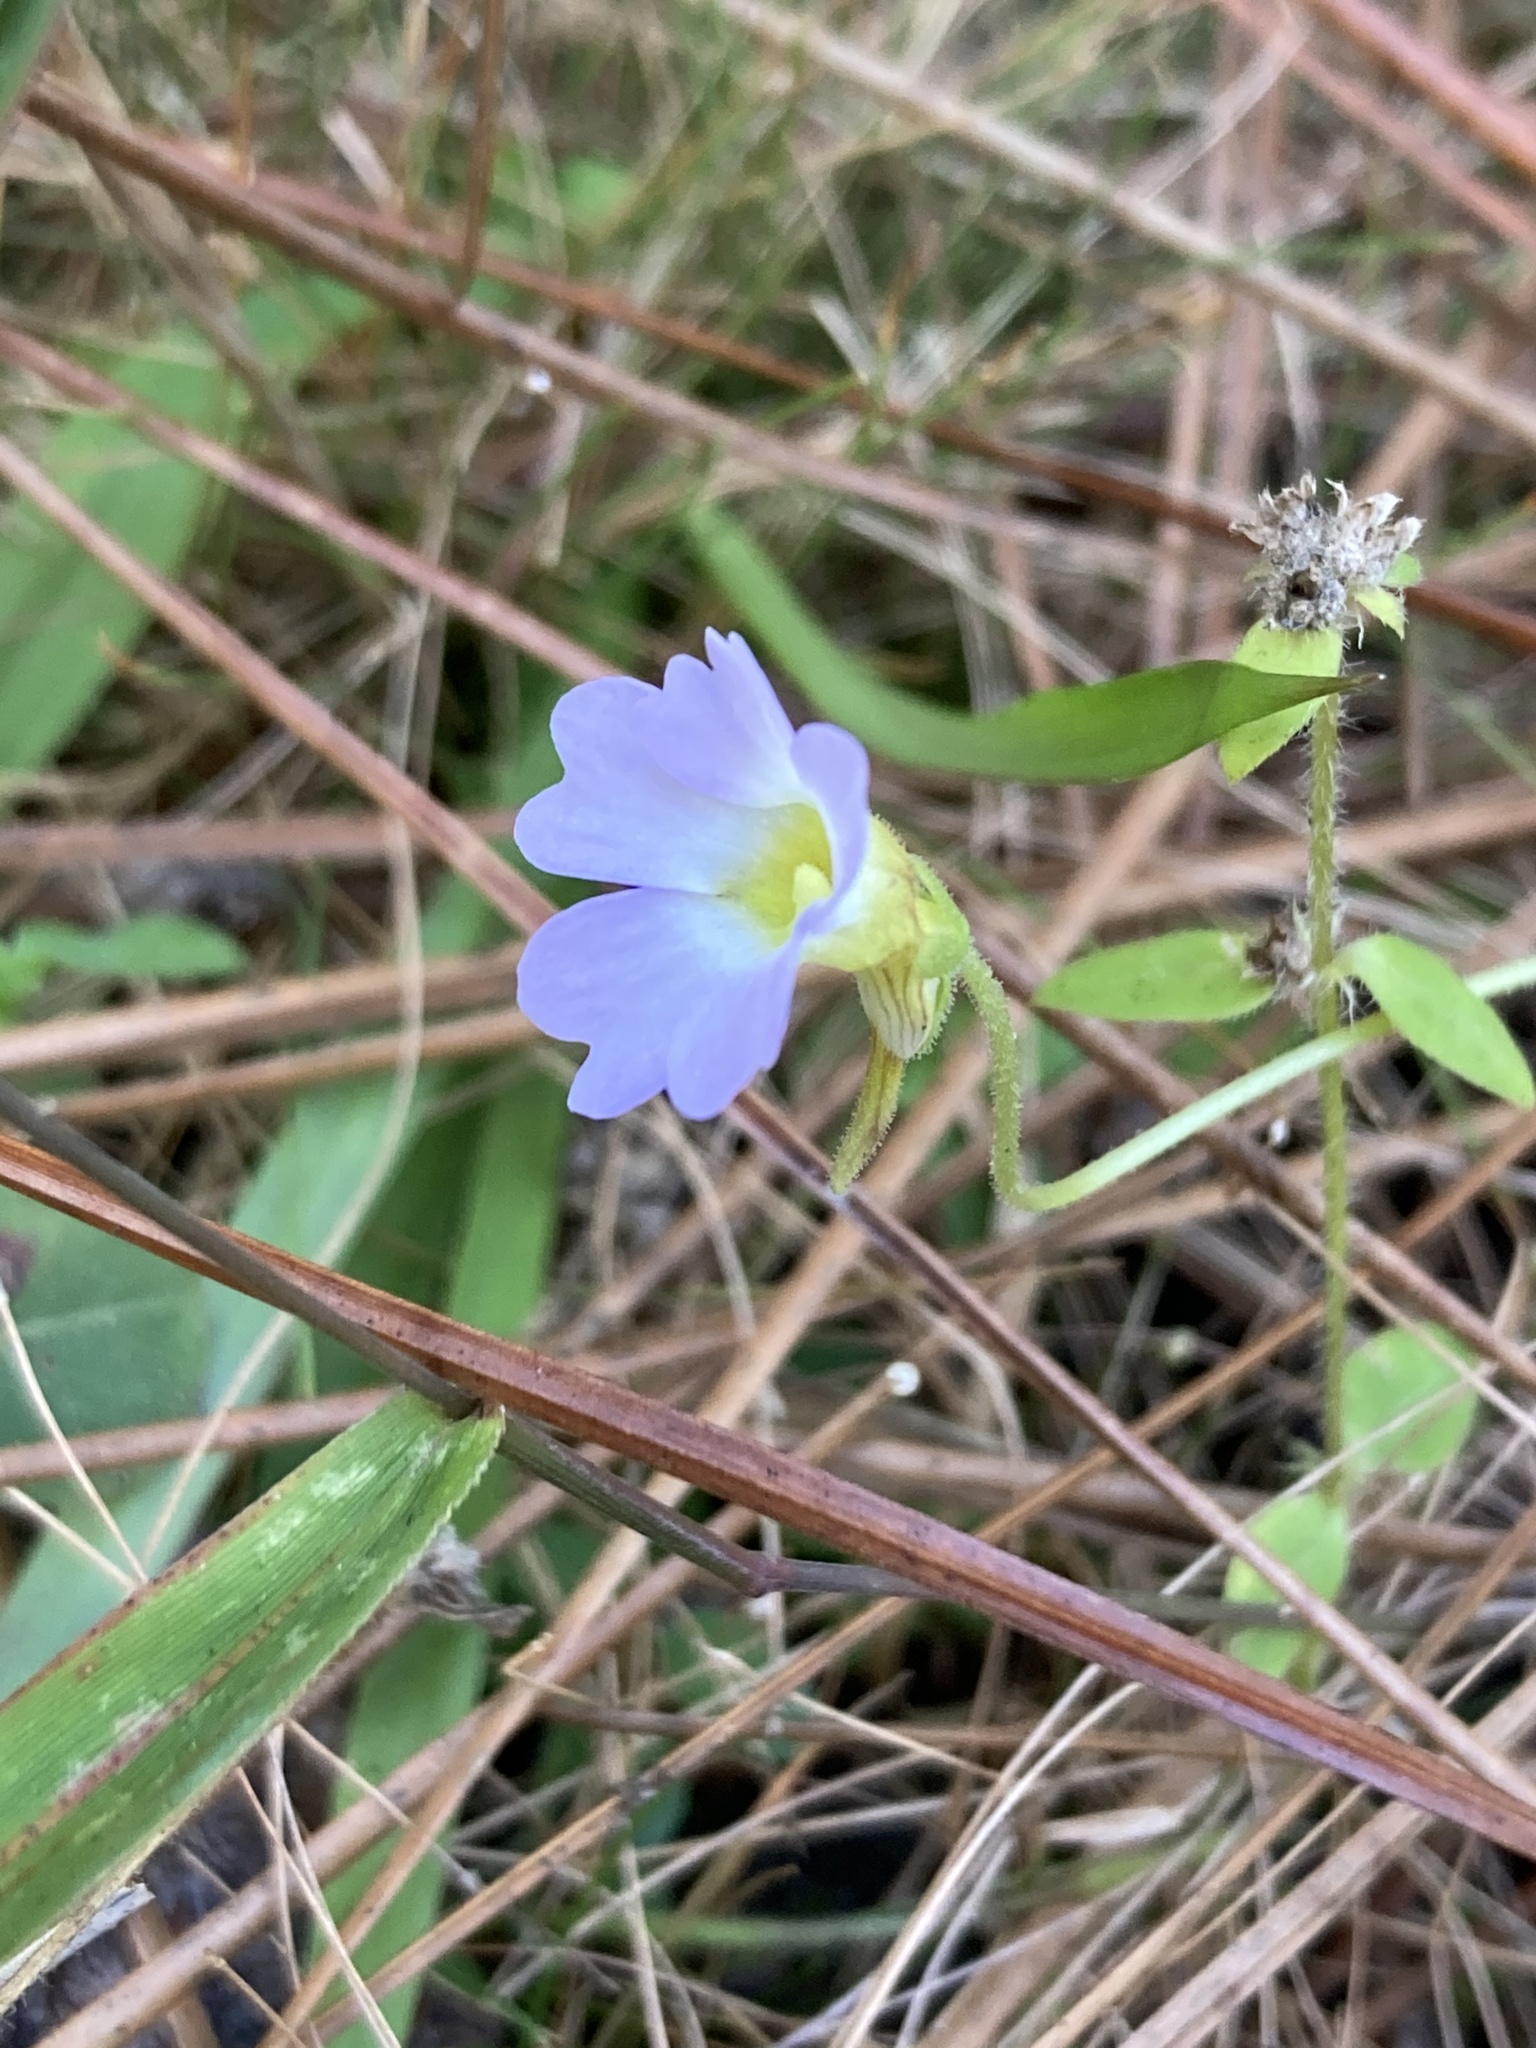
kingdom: Plantae
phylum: Tracheophyta
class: Magnoliopsida
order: Lamiales
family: Lentibulariaceae
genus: Pinguicula
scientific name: Pinguicula pumila
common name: Small butterwort
